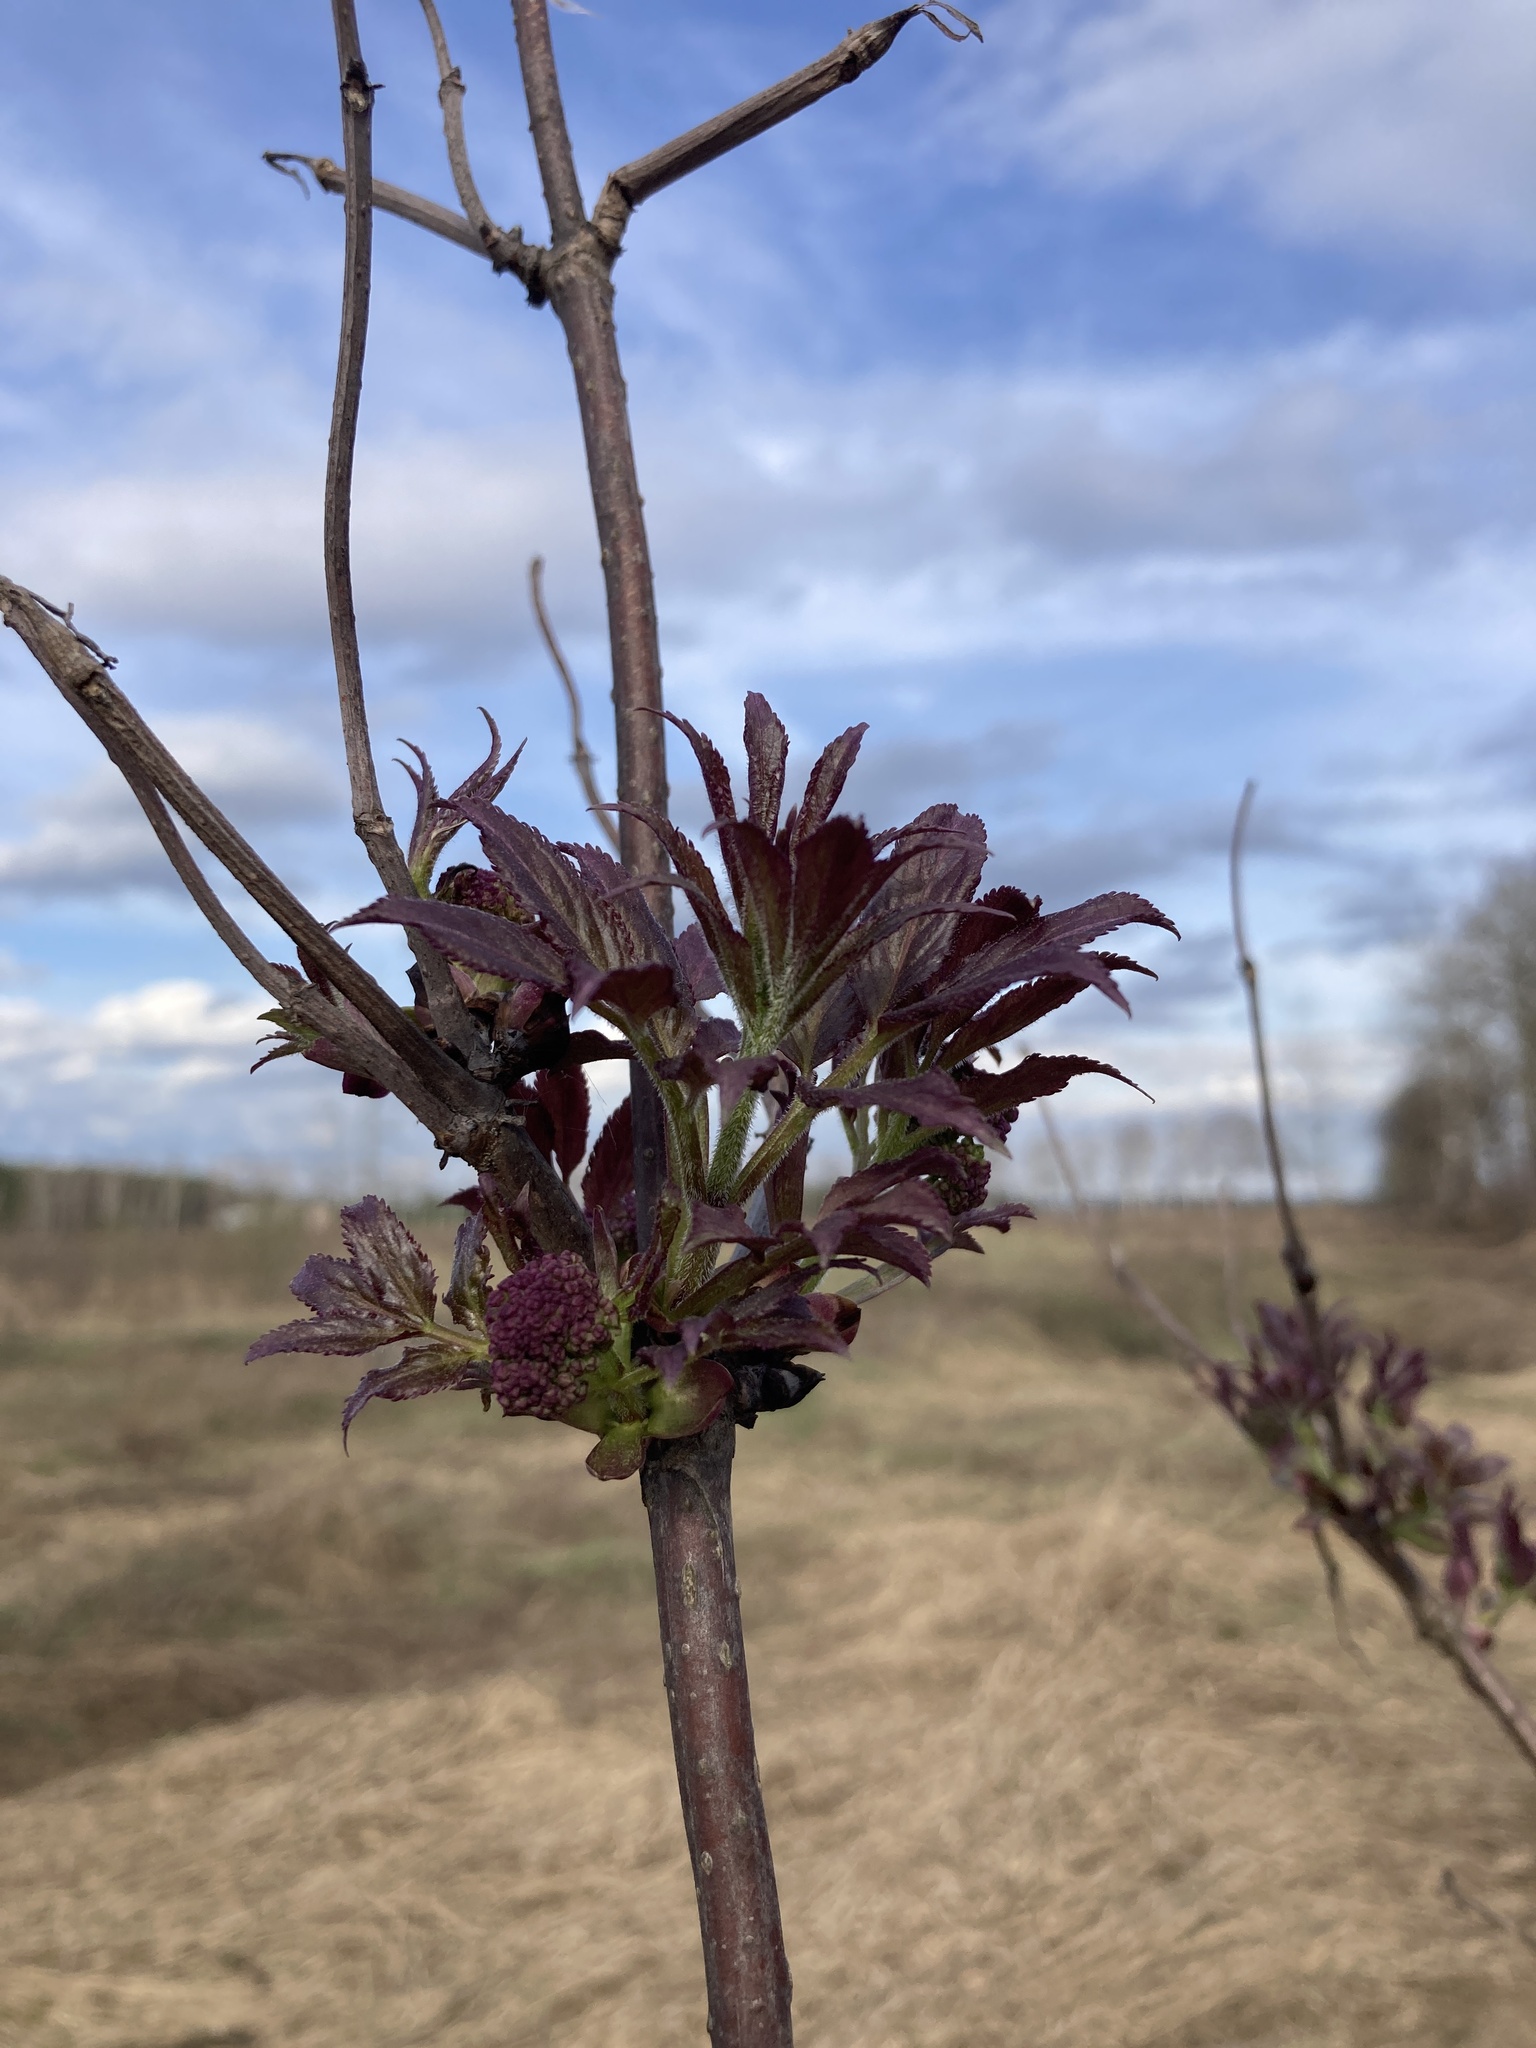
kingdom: Plantae
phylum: Tracheophyta
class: Magnoliopsida
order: Dipsacales
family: Viburnaceae
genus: Sambucus
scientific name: Sambucus racemosa
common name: Red-berried elder
